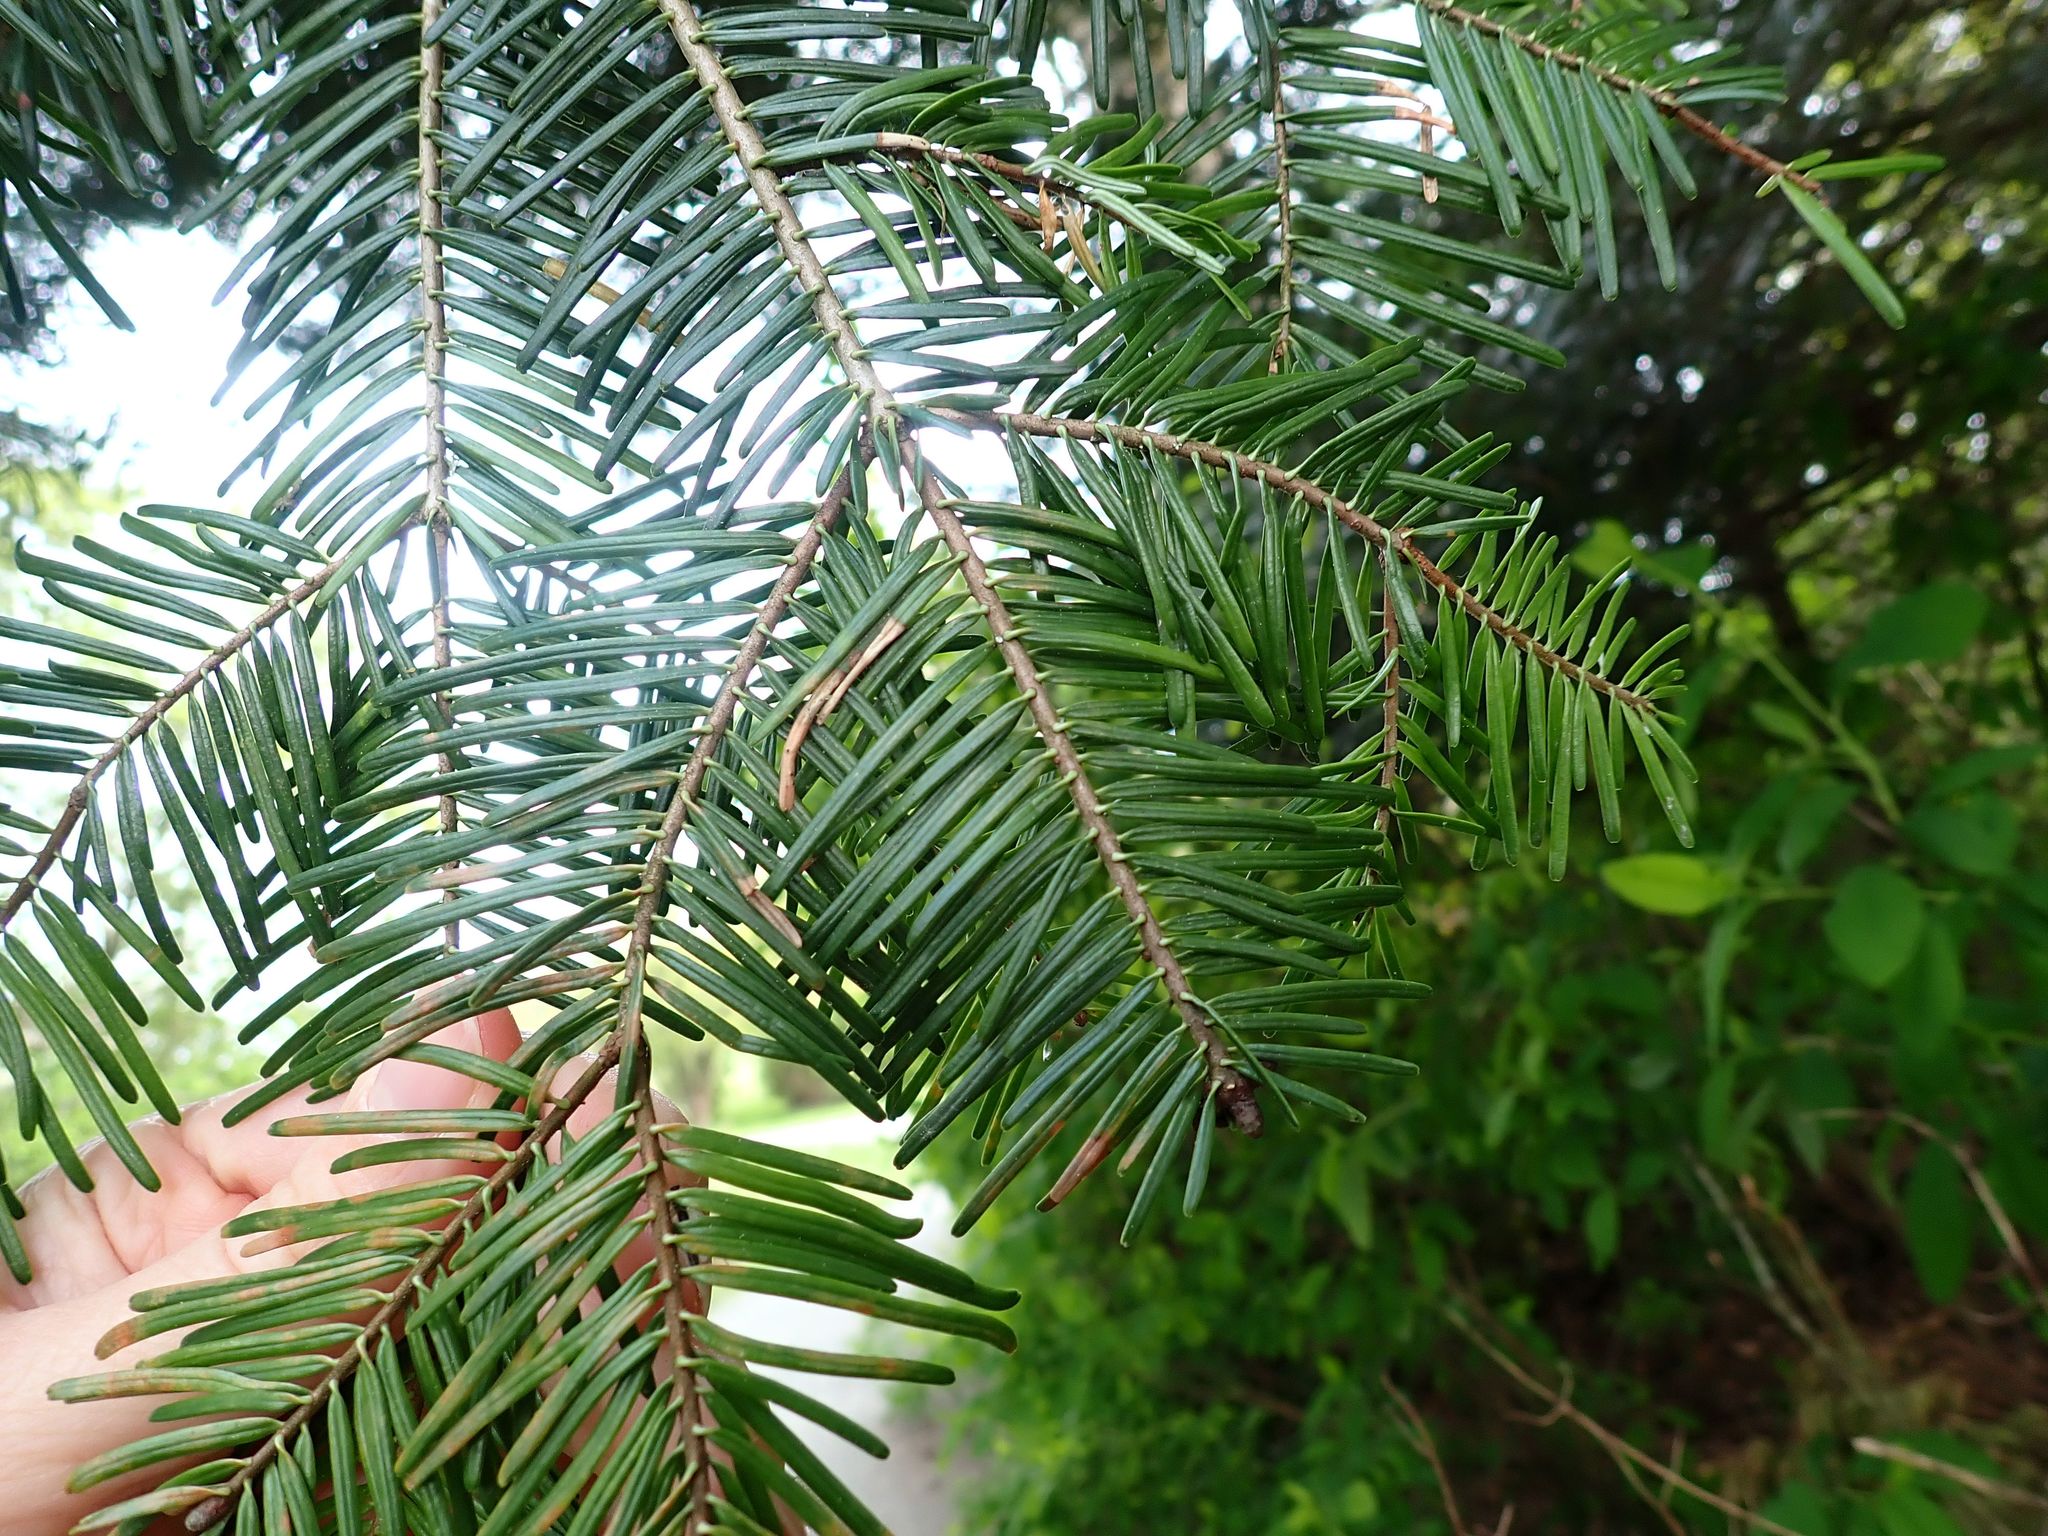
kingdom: Plantae
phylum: Tracheophyta
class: Pinopsida
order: Pinales
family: Pinaceae
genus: Abies
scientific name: Abies grandis
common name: Giant fir
